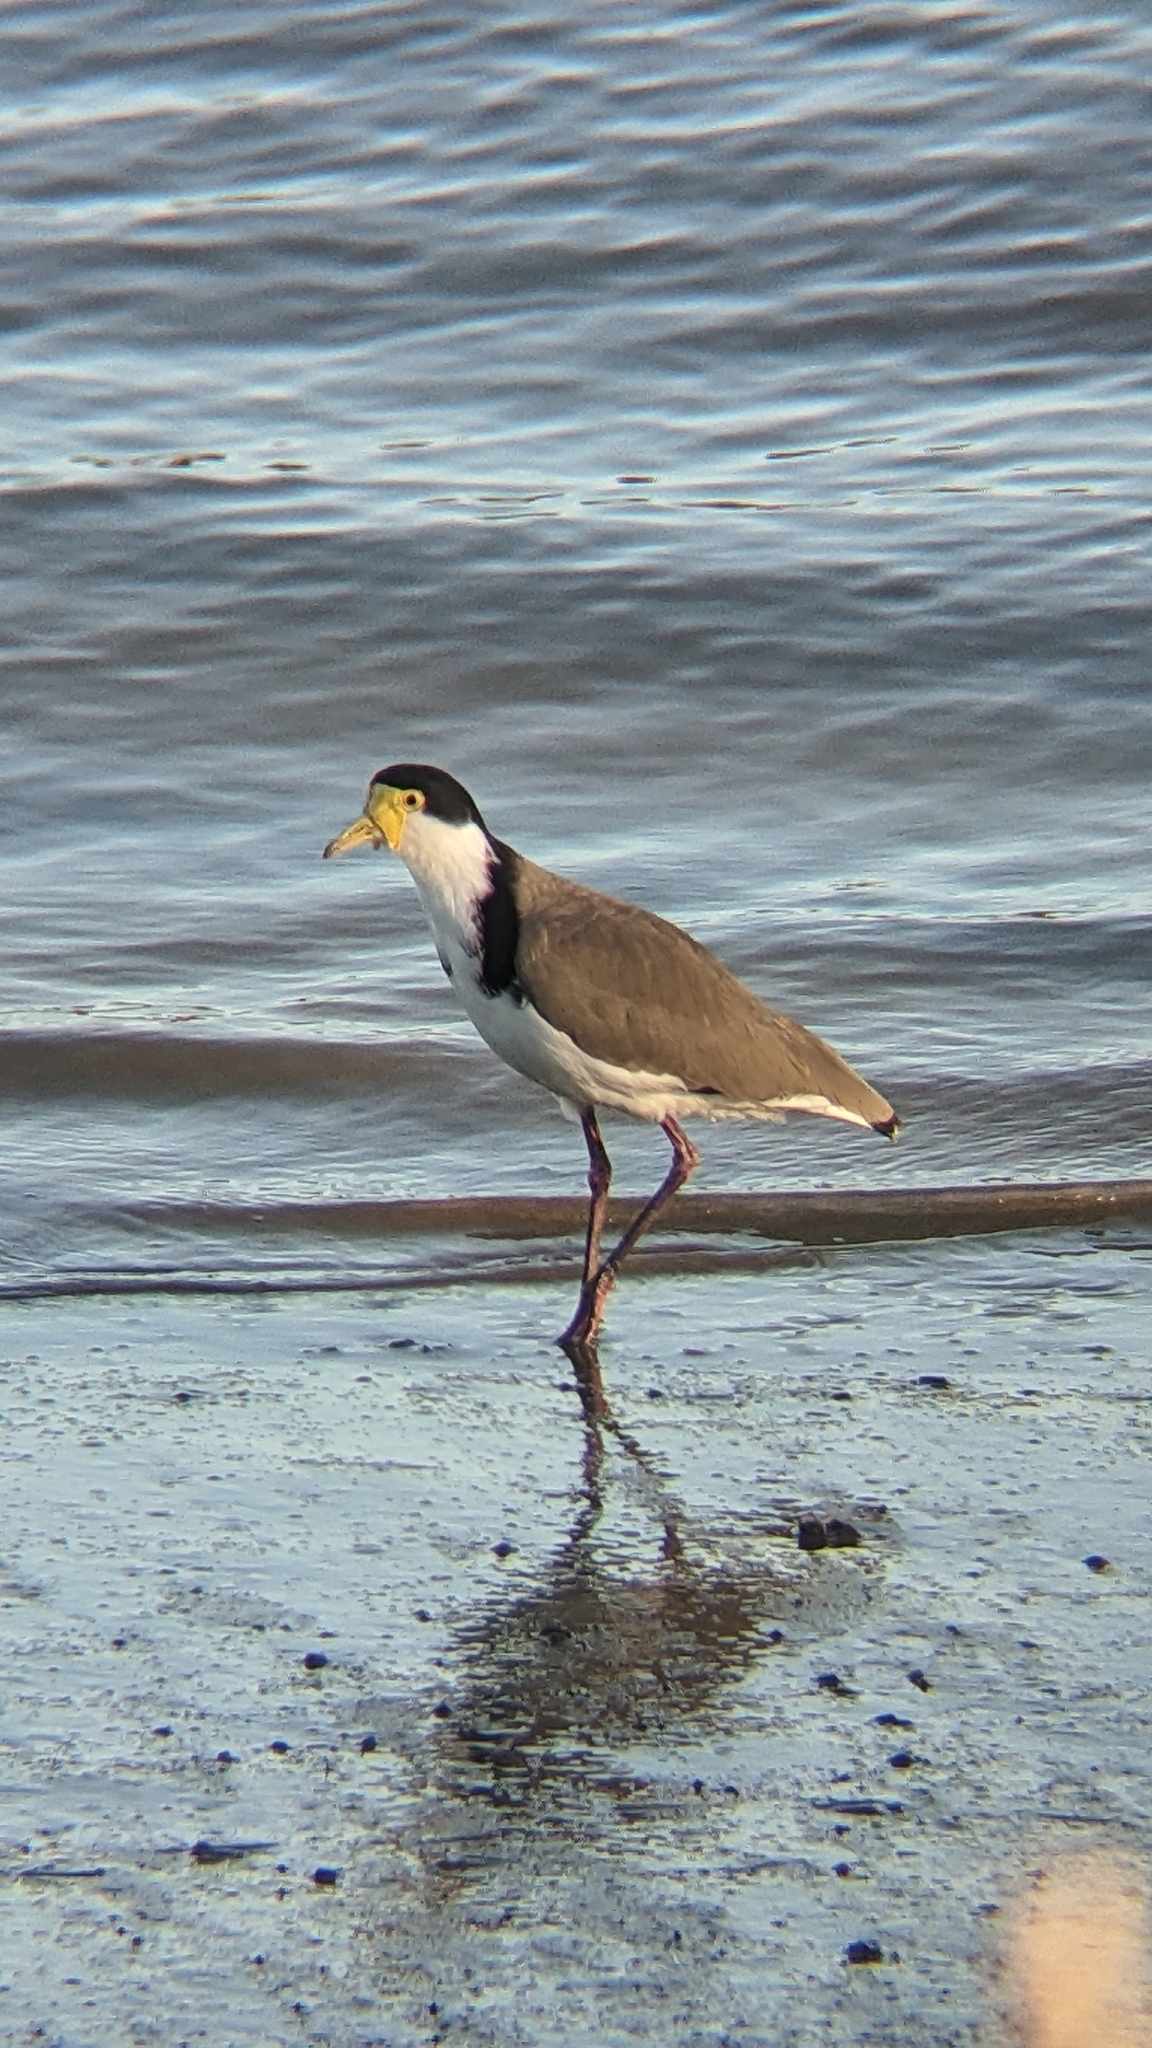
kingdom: Animalia
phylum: Chordata
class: Aves
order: Charadriiformes
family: Charadriidae
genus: Vanellus
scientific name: Vanellus miles
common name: Masked lapwing
